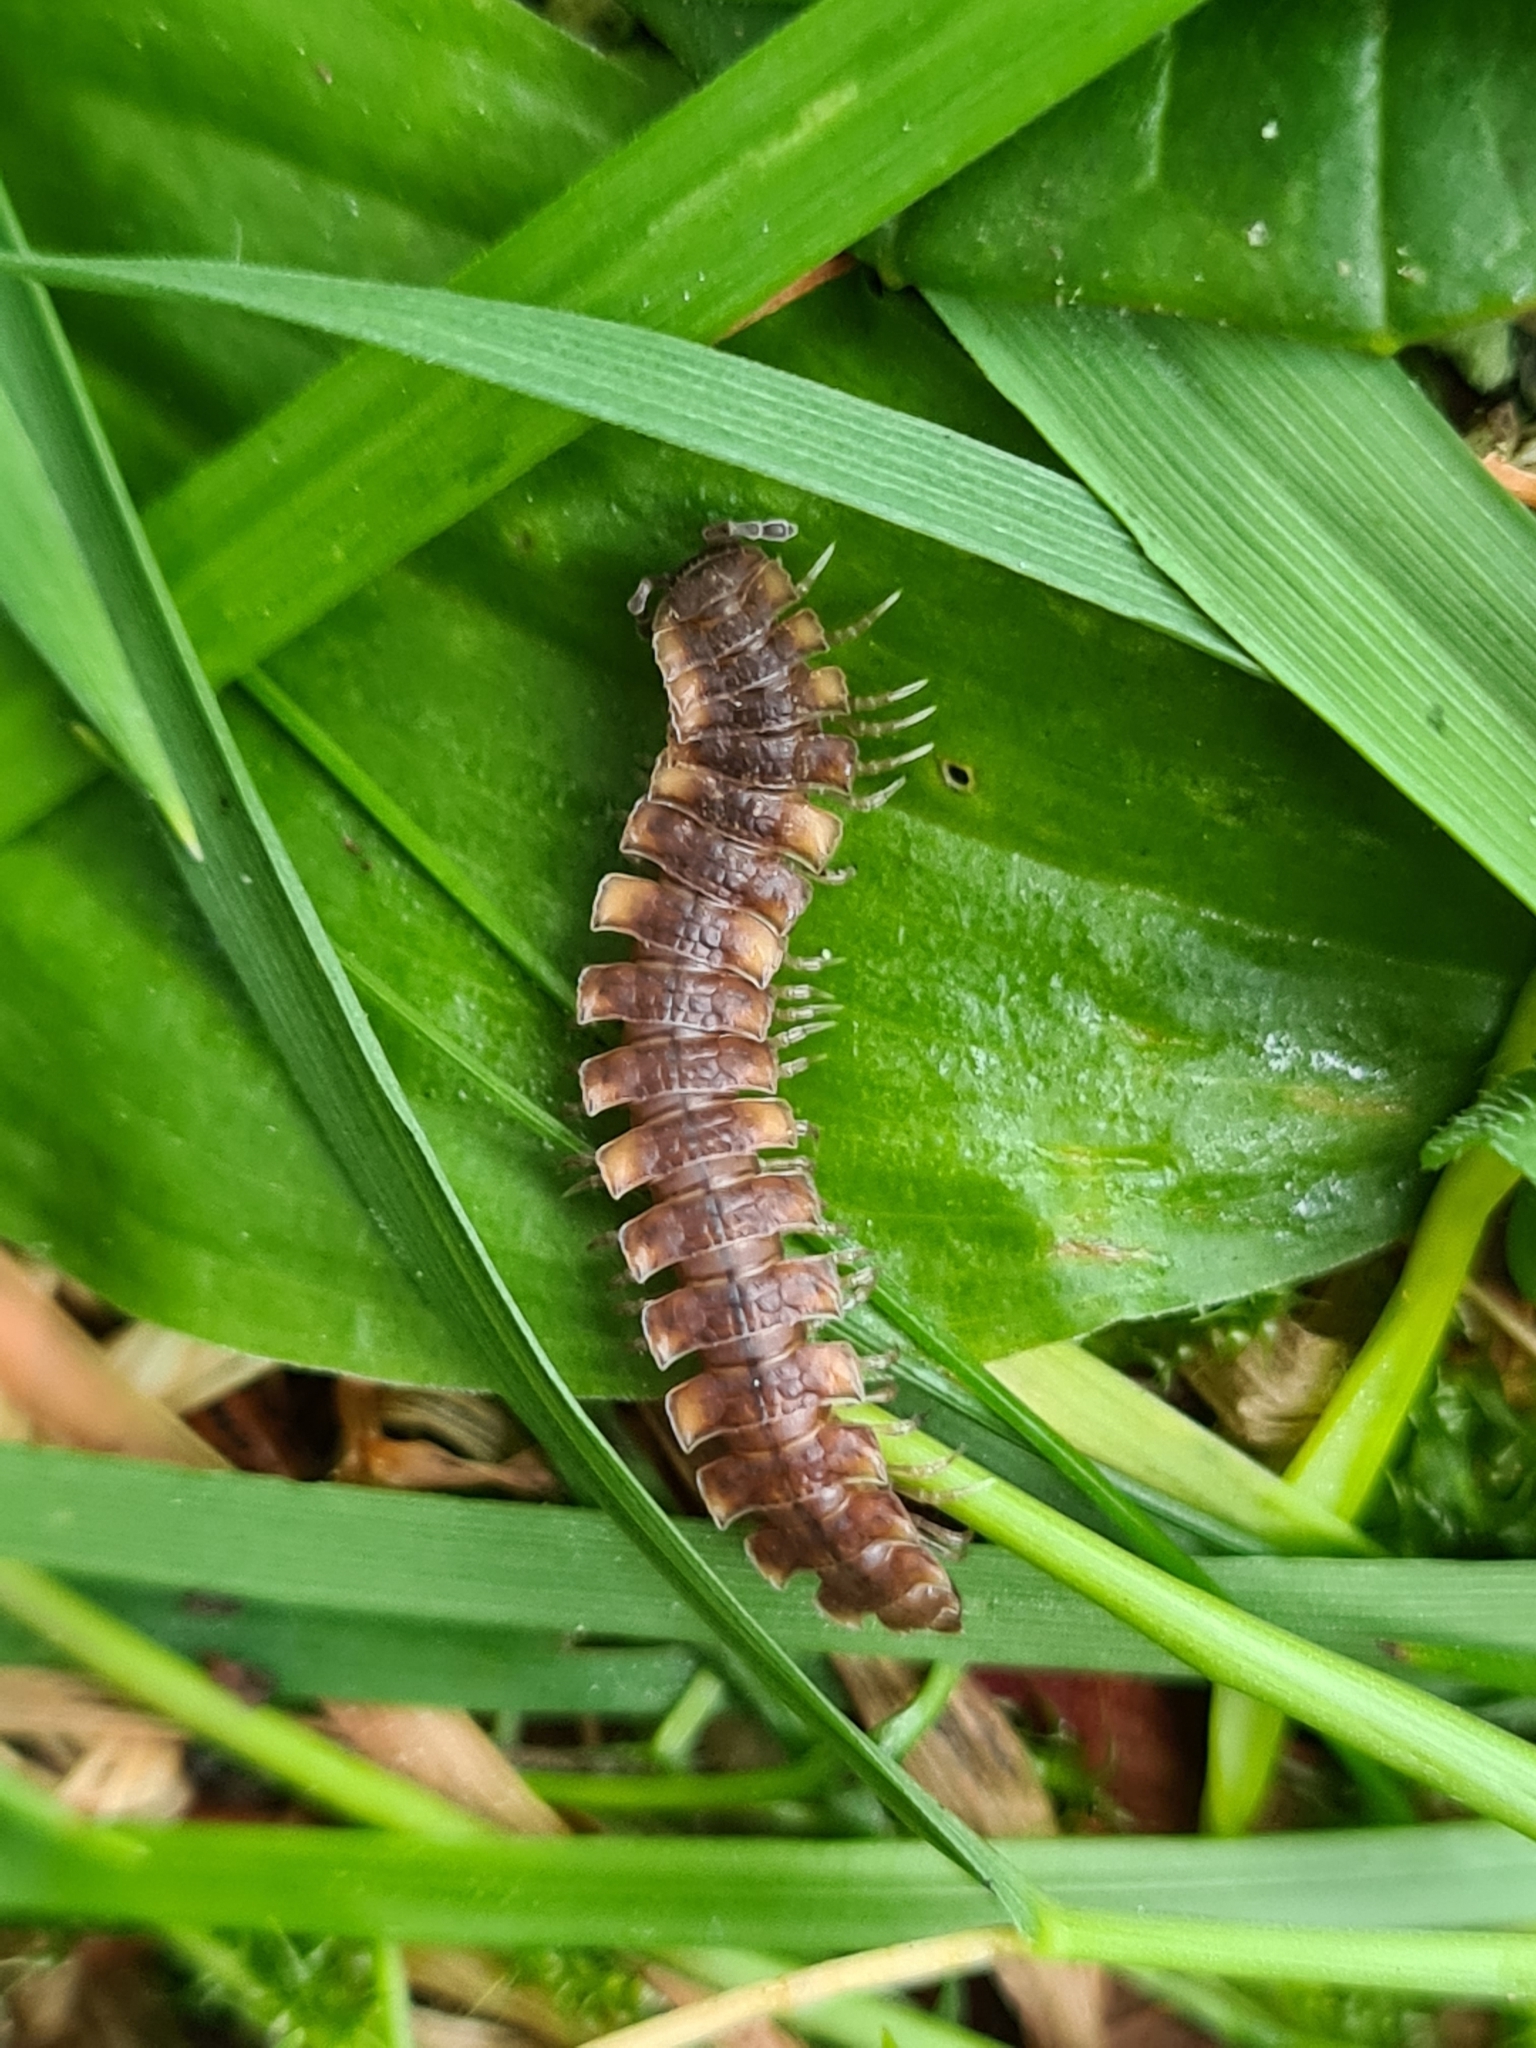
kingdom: Animalia
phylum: Arthropoda
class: Diplopoda
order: Polydesmida
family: Polydesmidae
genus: Polydesmus
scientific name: Polydesmus complanatus
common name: Flat-backed millipede
